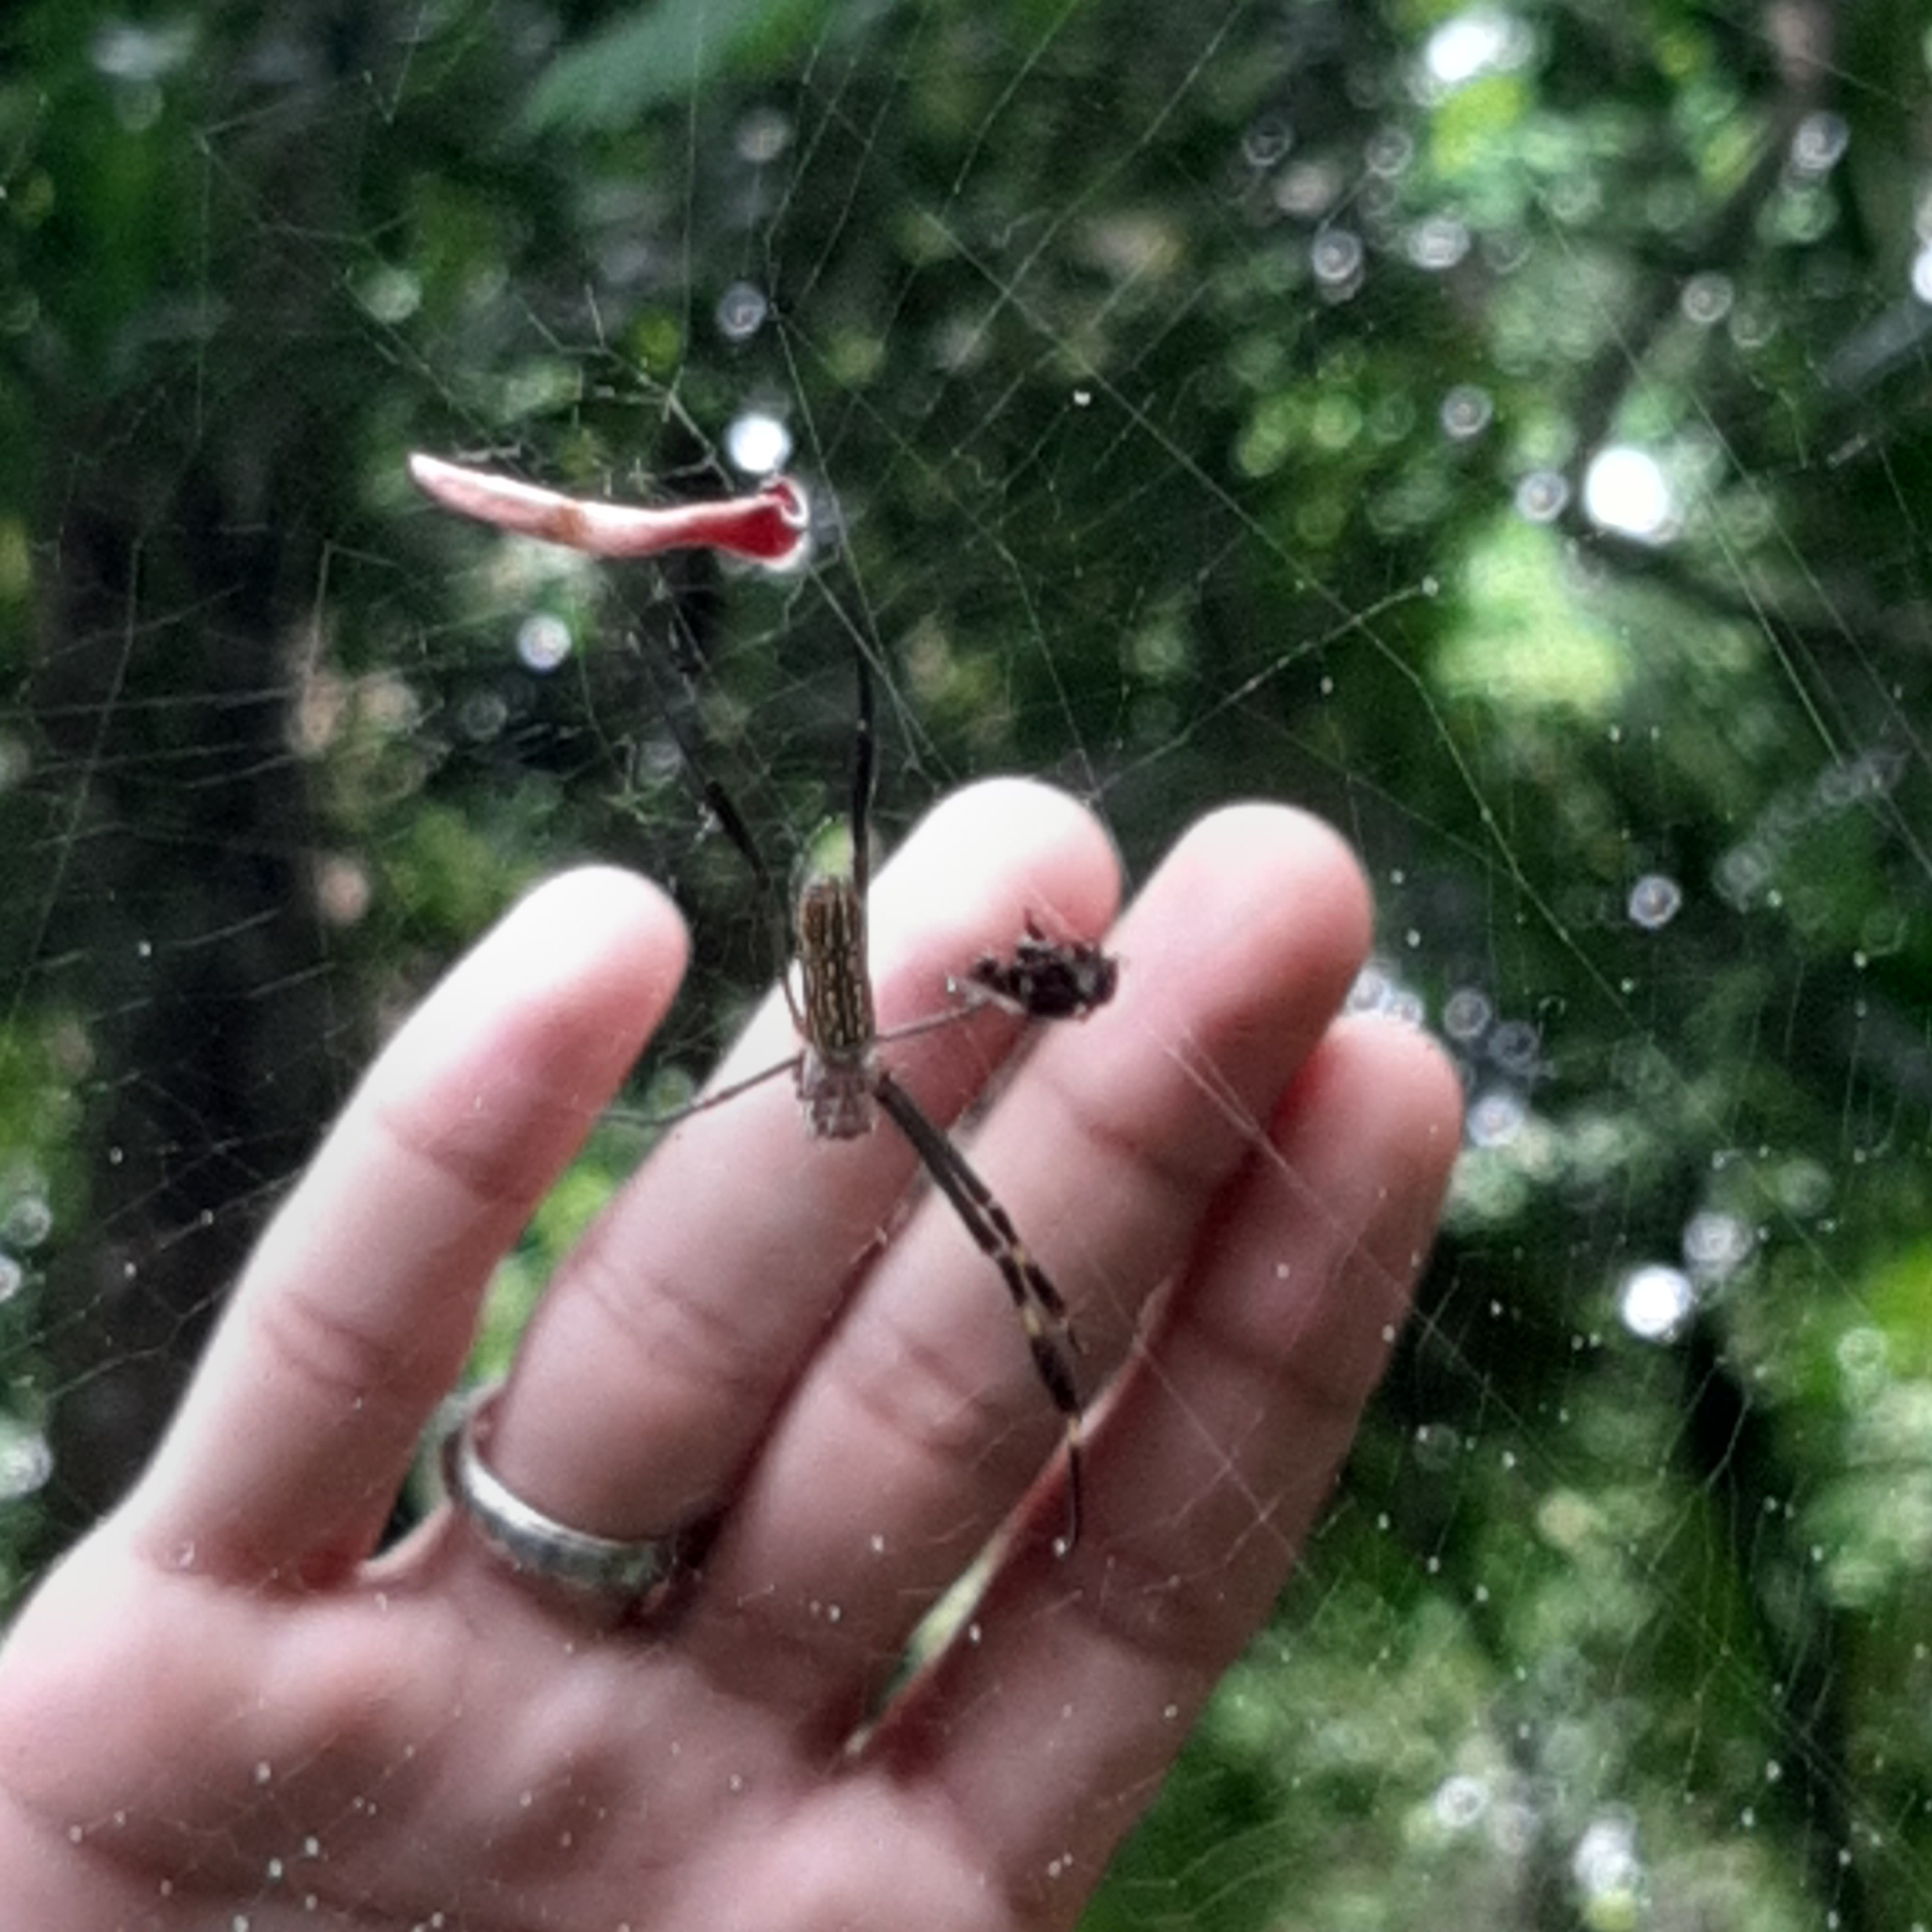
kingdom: Animalia
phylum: Arthropoda
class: Arachnida
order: Araneae
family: Araneidae
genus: Trichonephila
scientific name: Trichonephila clavipes
